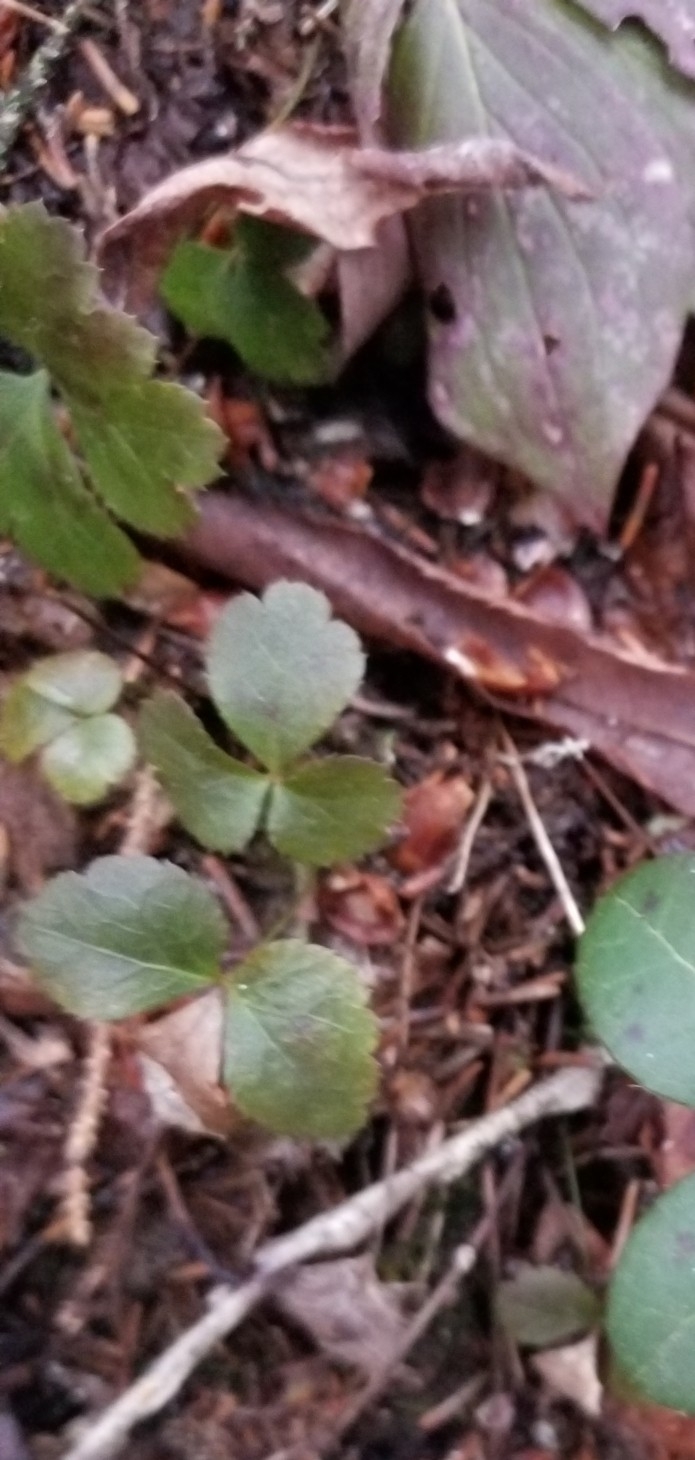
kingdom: Plantae
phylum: Tracheophyta
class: Magnoliopsida
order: Ranunculales
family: Ranunculaceae
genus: Coptis
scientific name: Coptis trifolia
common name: Canker-root
